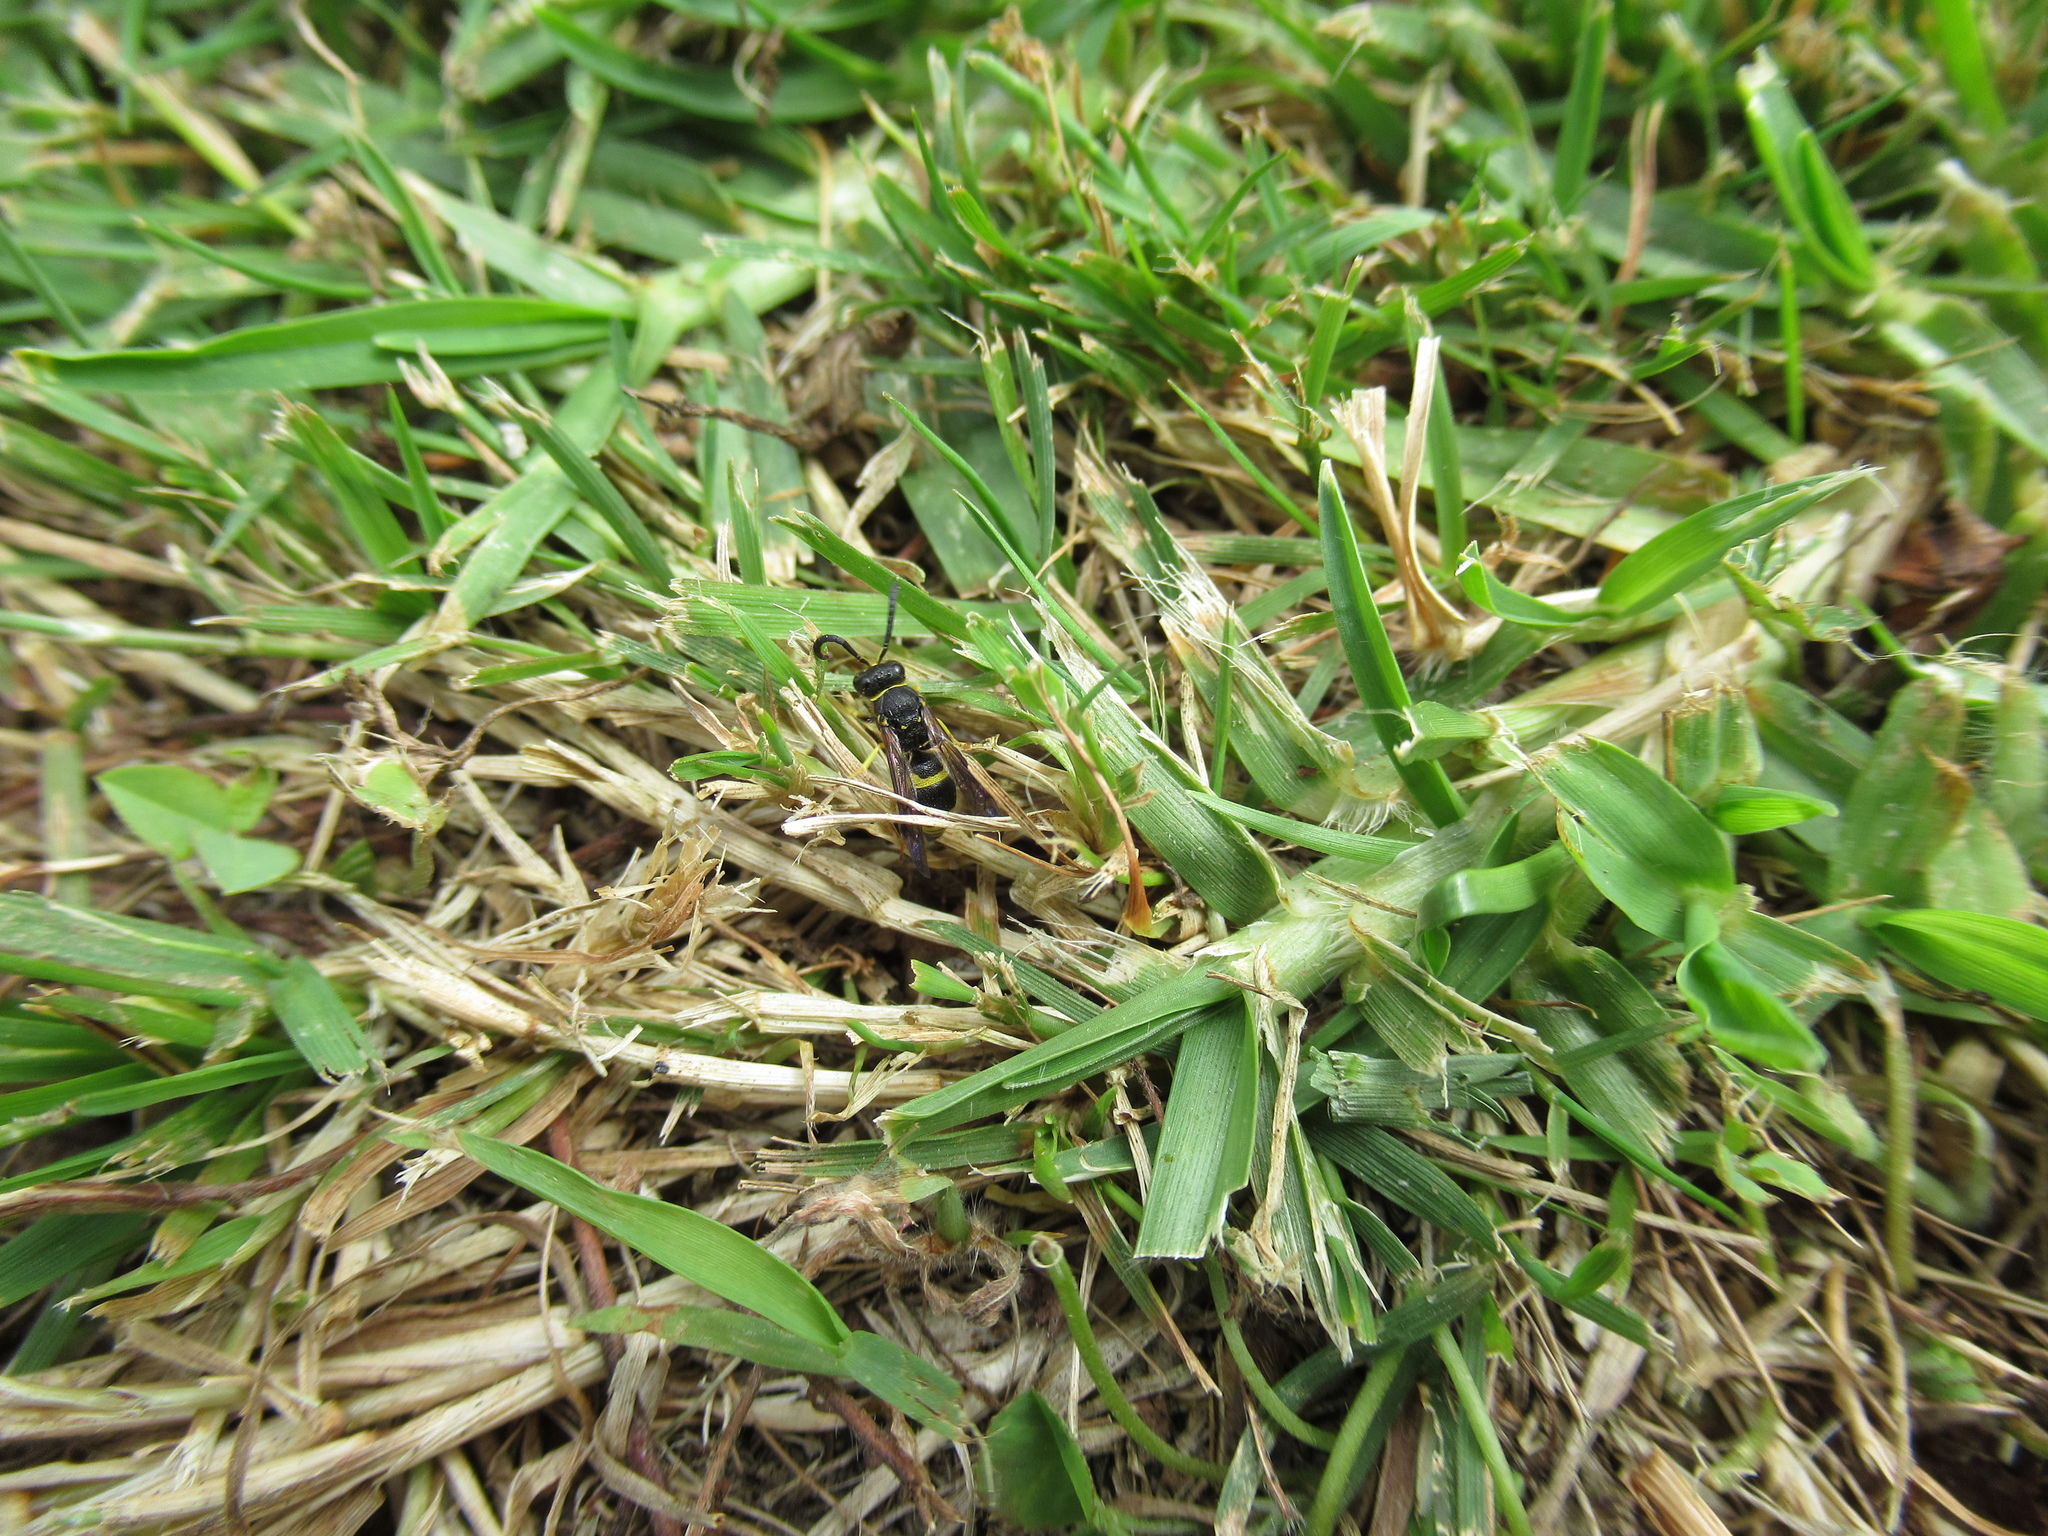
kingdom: Animalia
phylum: Arthropoda
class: Insecta
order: Hymenoptera
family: Vespidae
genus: Ancistrocerus
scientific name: Ancistrocerus gazella
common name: European tube wasp
